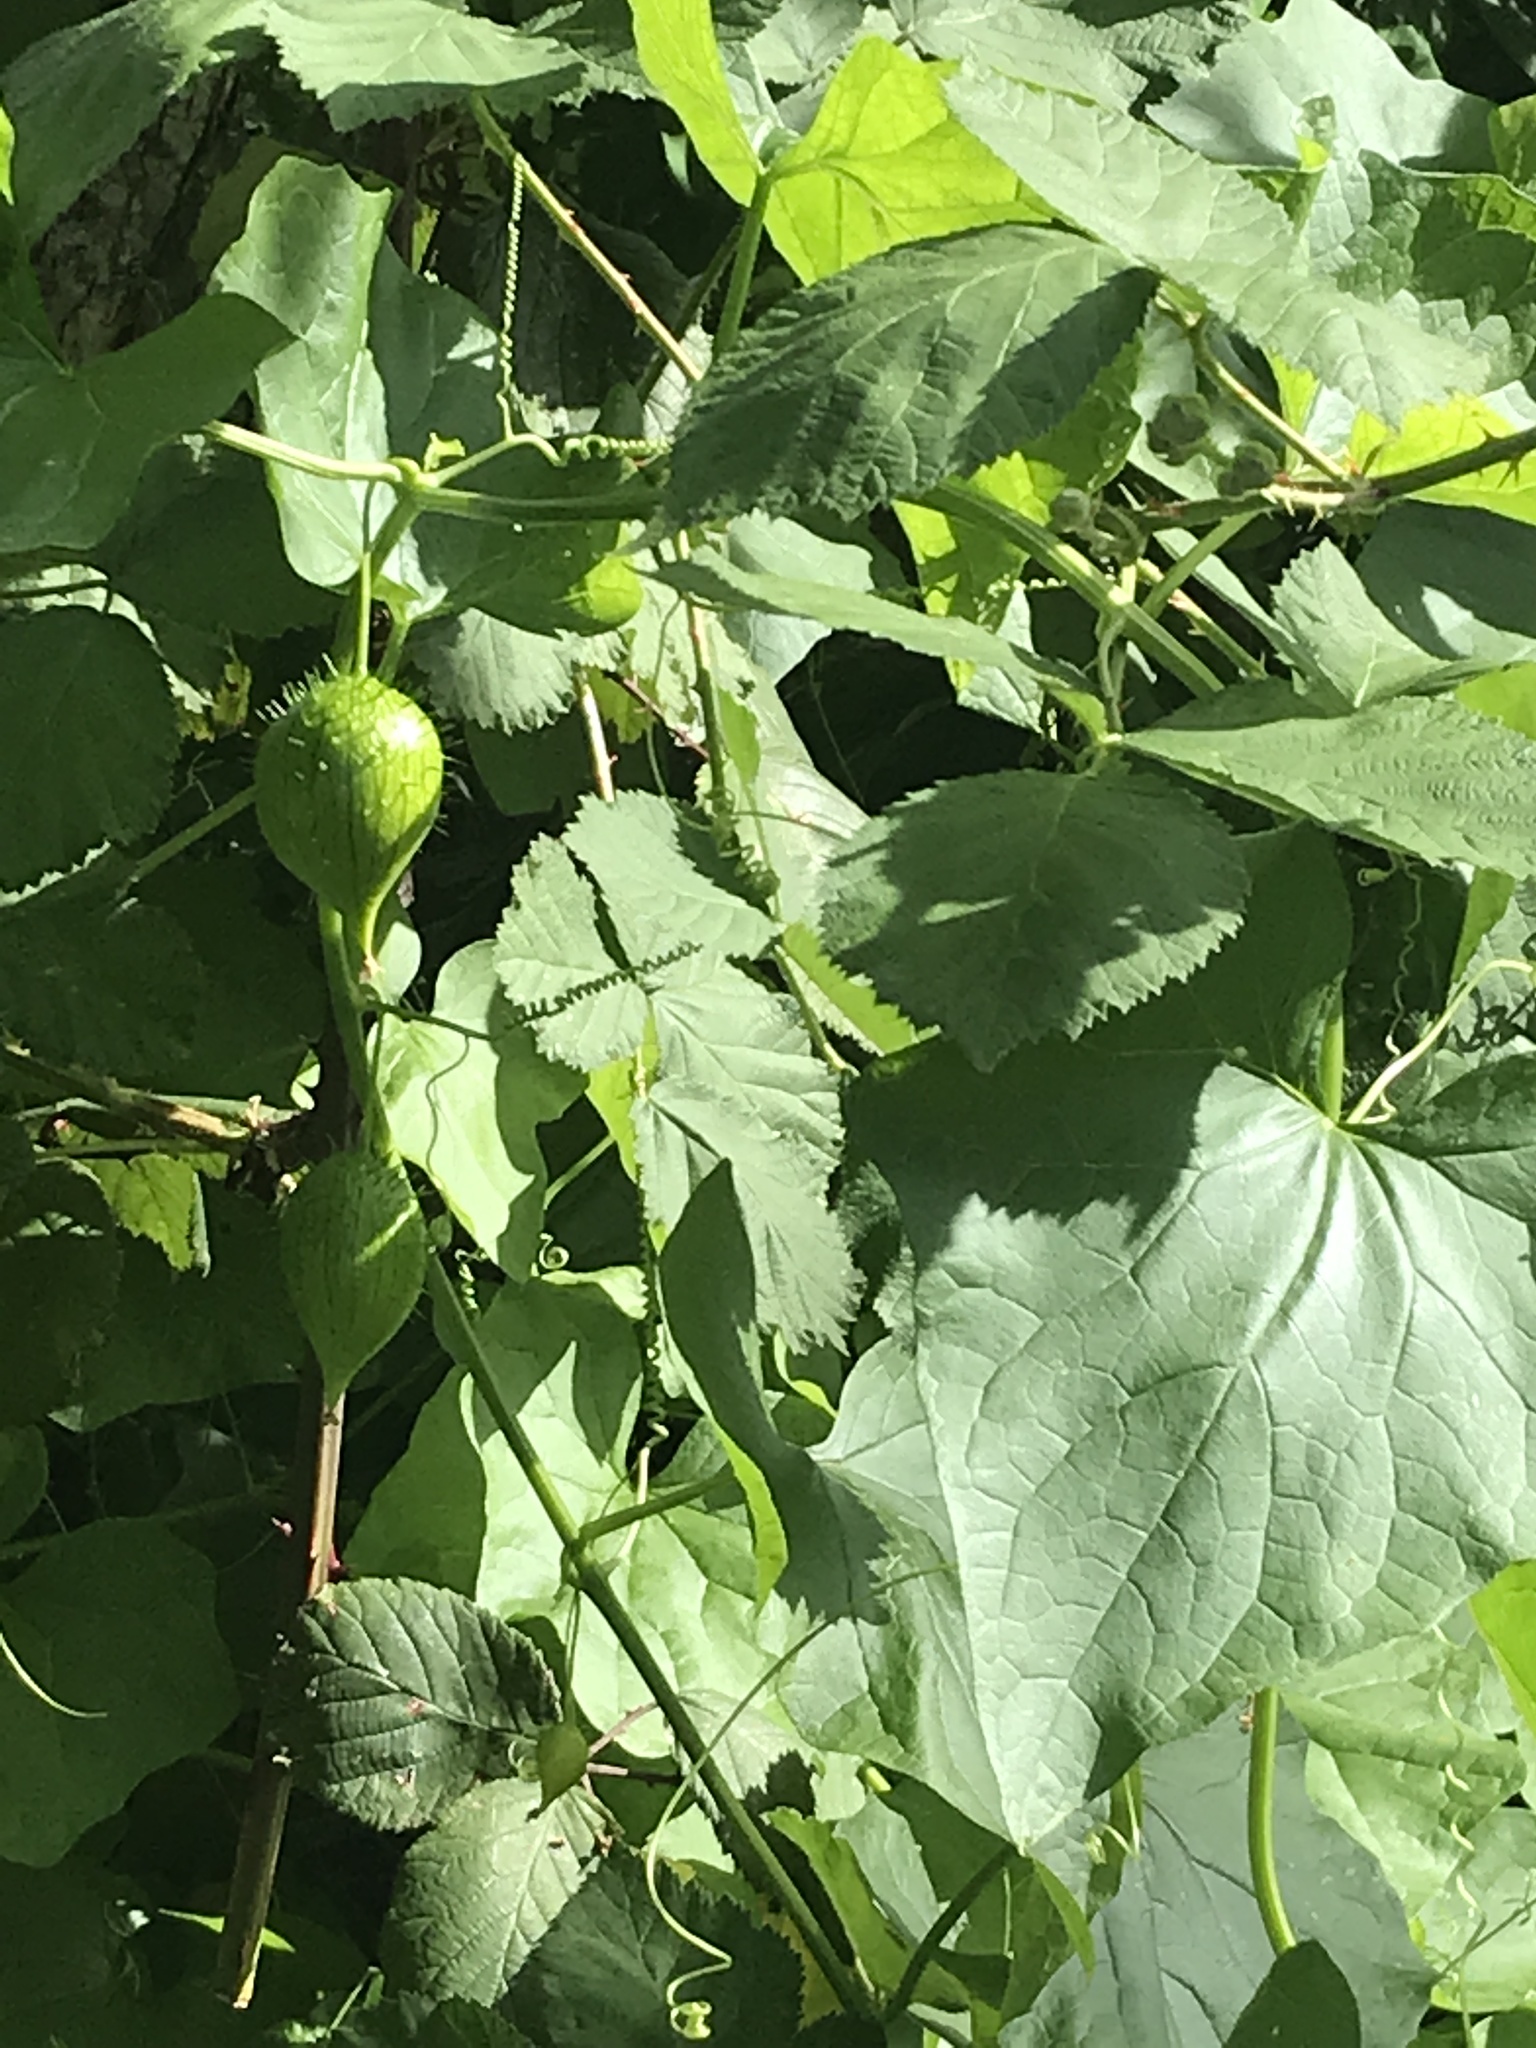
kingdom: Plantae
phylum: Tracheophyta
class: Magnoliopsida
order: Cucurbitales
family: Cucurbitaceae
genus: Marah
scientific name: Marah oregana
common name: Coastal manroot
